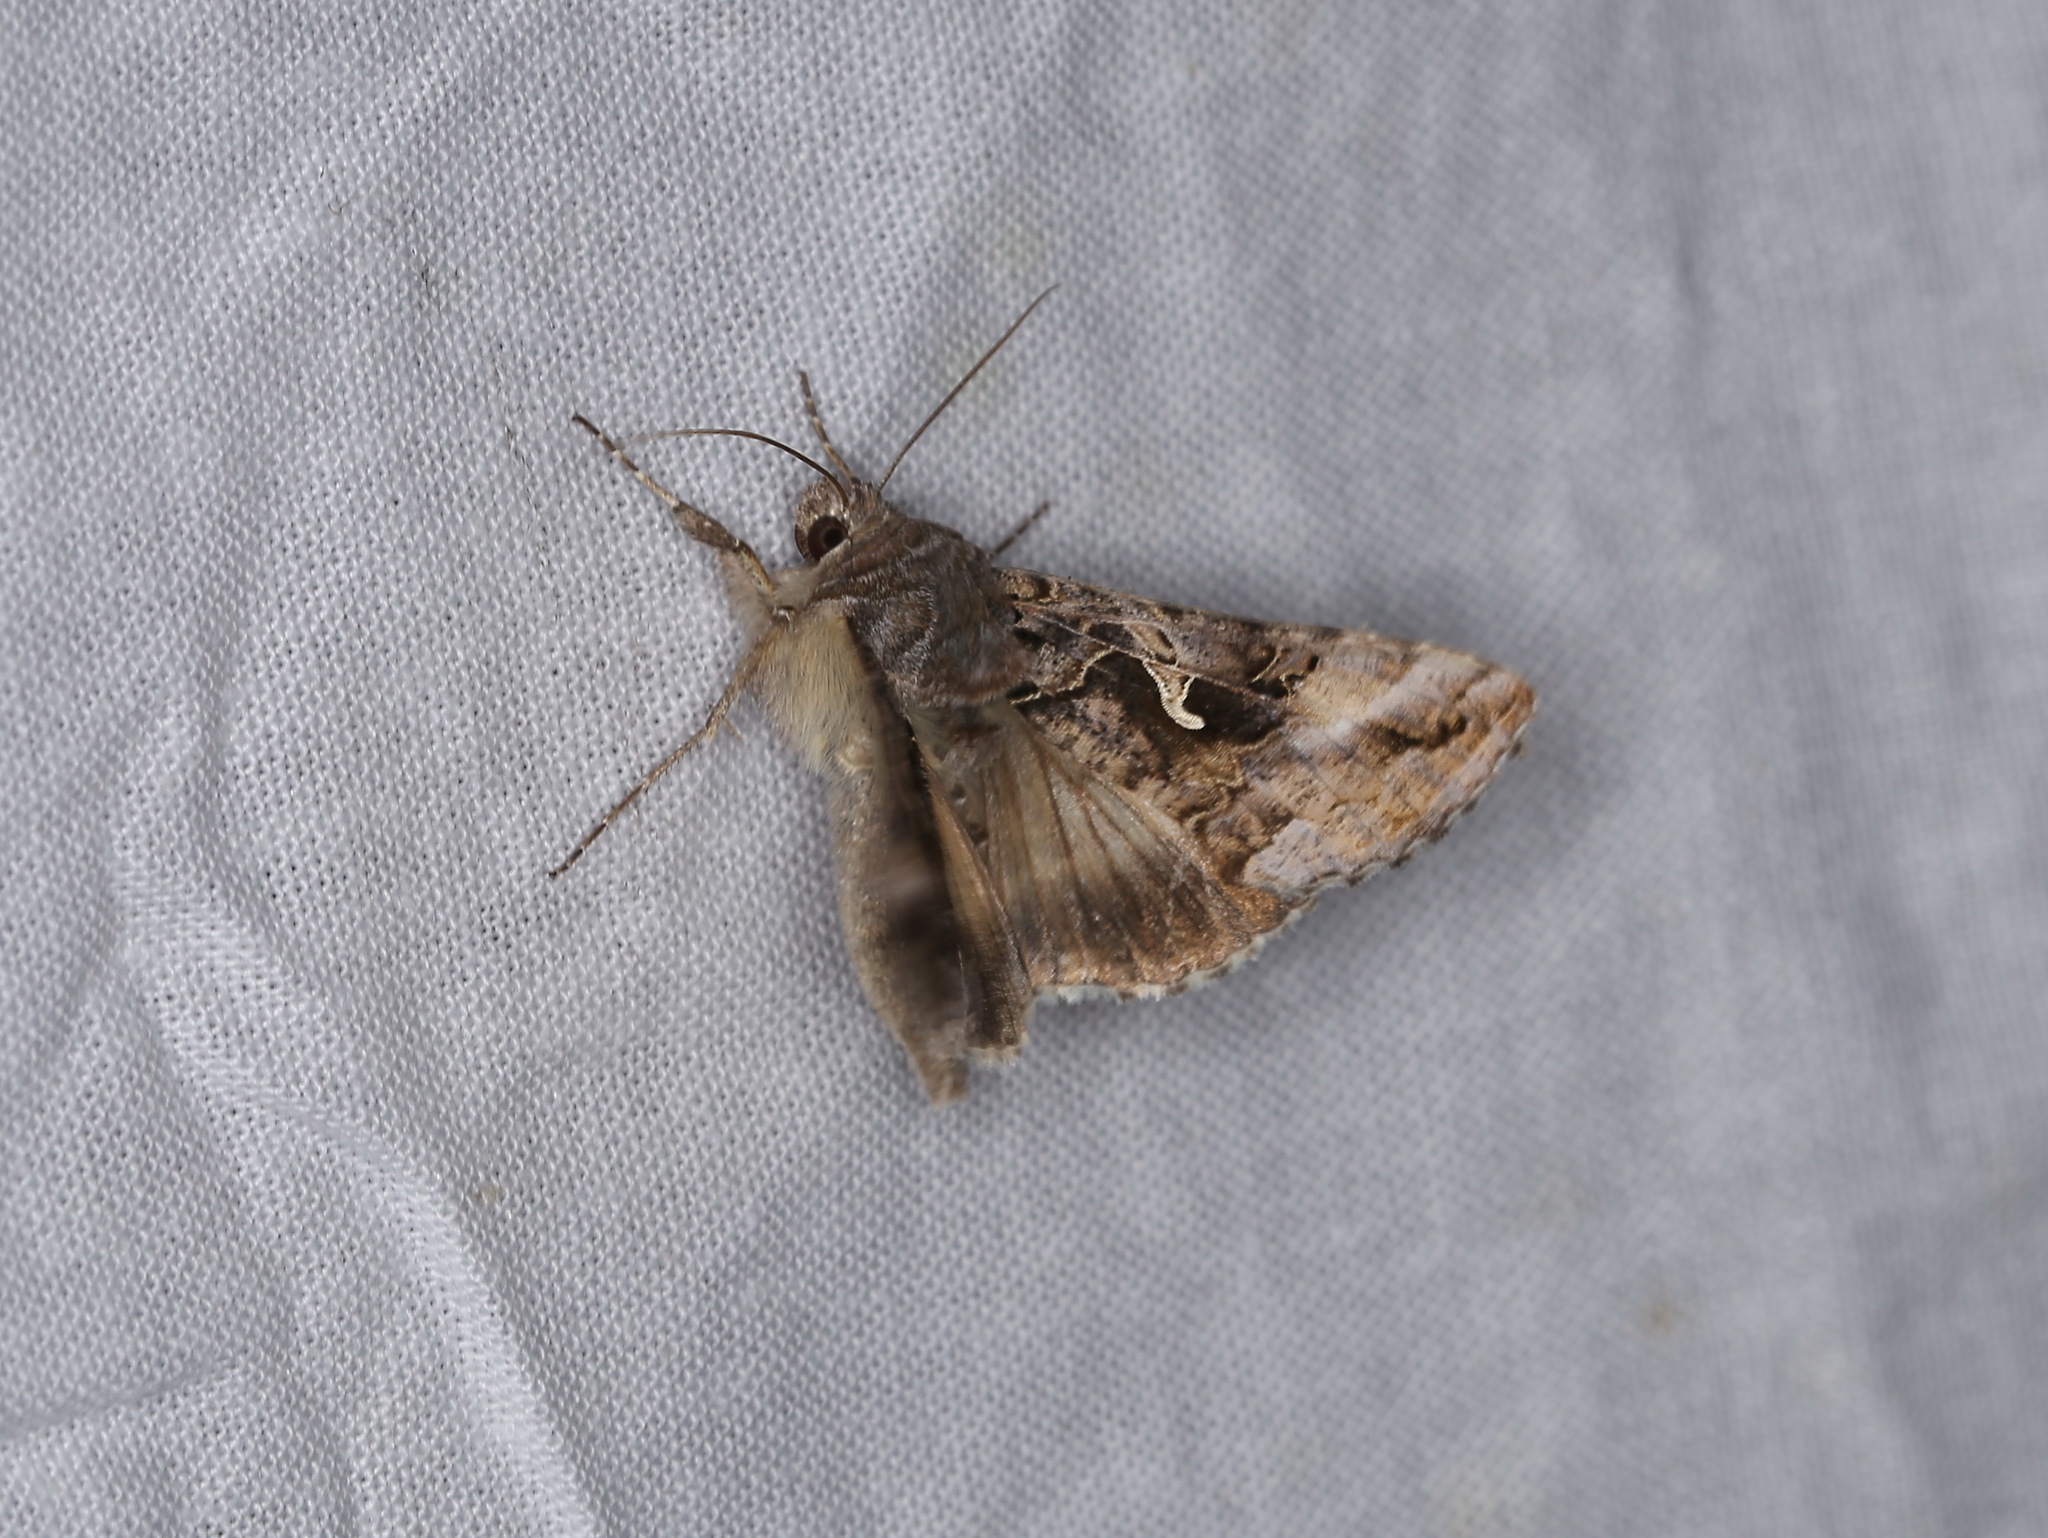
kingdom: Animalia
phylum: Arthropoda
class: Insecta
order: Lepidoptera
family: Noctuidae
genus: Autographa
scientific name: Autographa gamma
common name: Silver y
